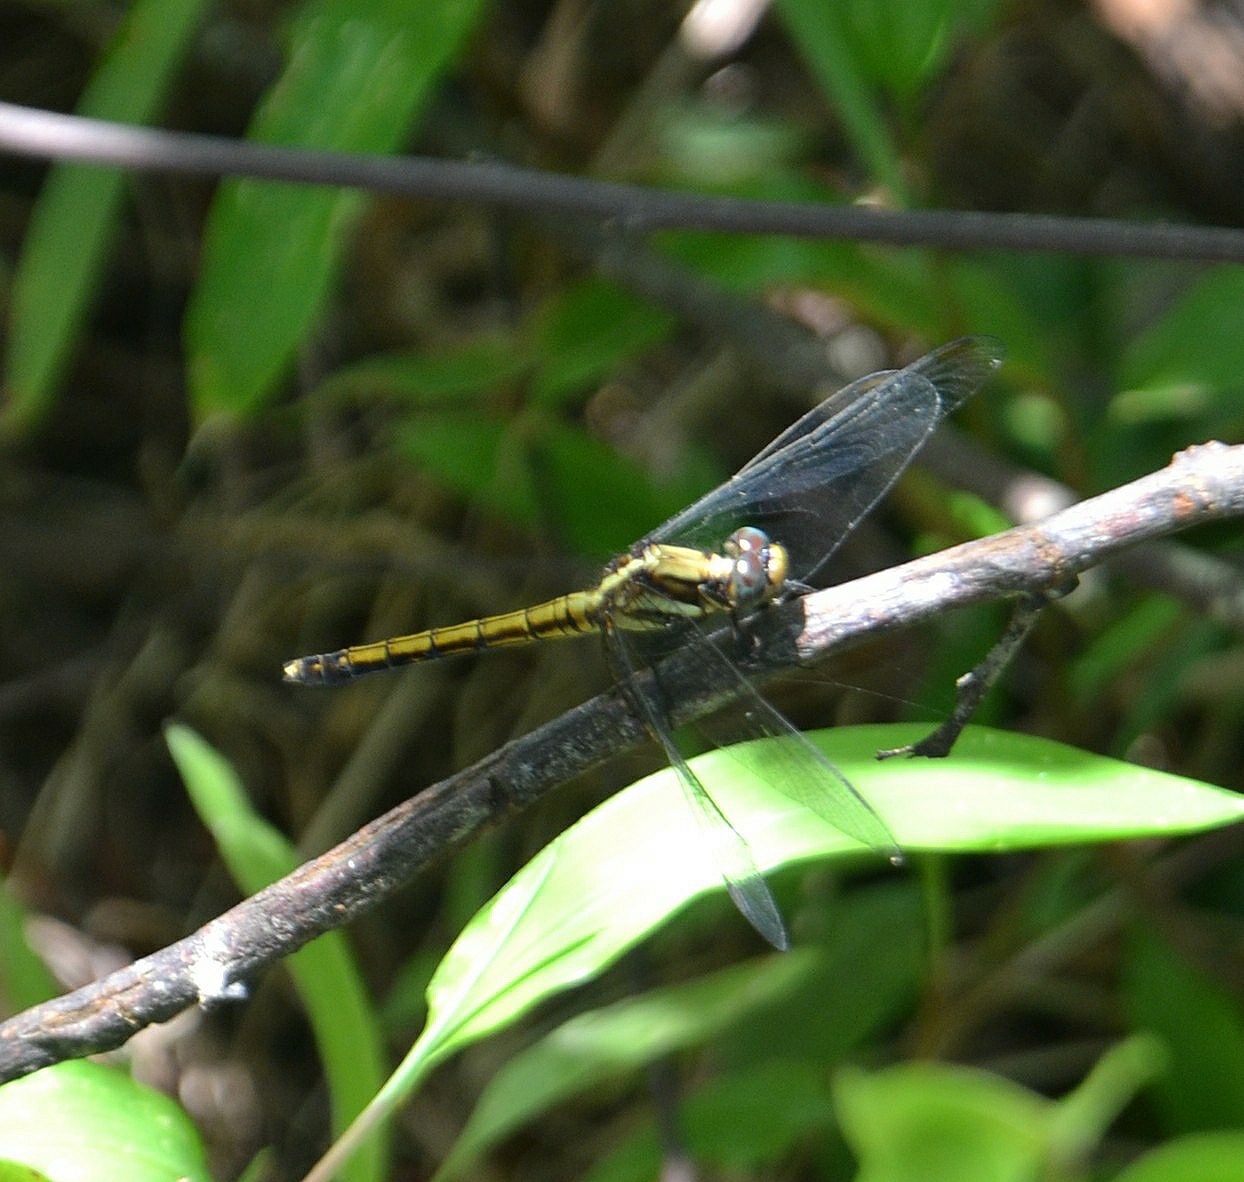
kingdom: Animalia
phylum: Arthropoda
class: Insecta
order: Odonata
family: Libellulidae
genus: Orthetrum
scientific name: Orthetrum glaucum
